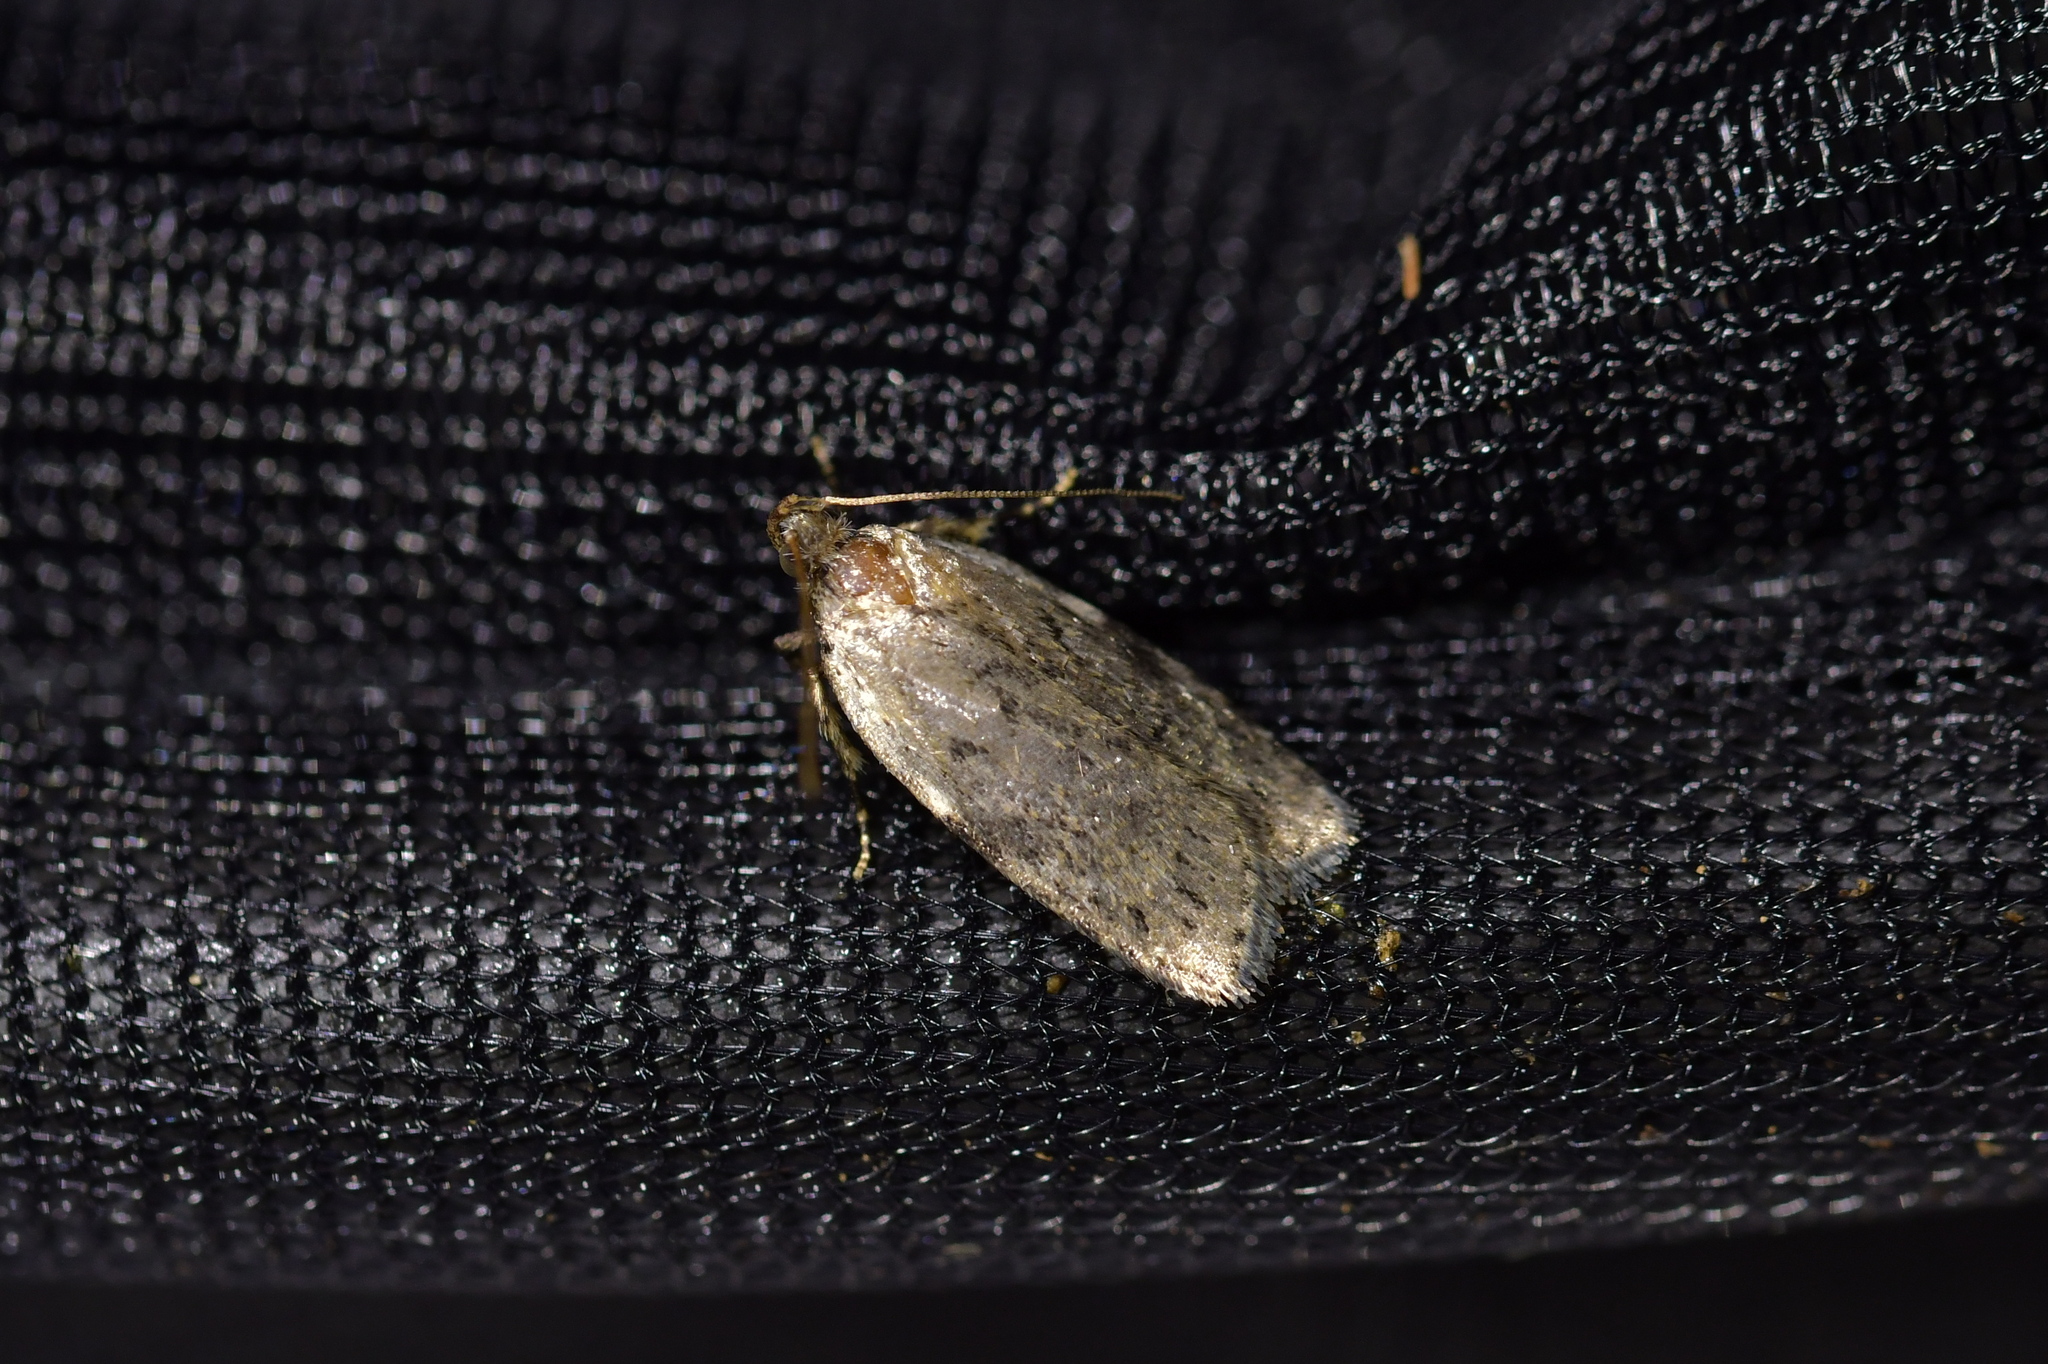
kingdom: Animalia
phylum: Arthropoda
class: Insecta
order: Lepidoptera
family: Depressariidae
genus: Phaeosaces
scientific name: Phaeosaces compsotypa
